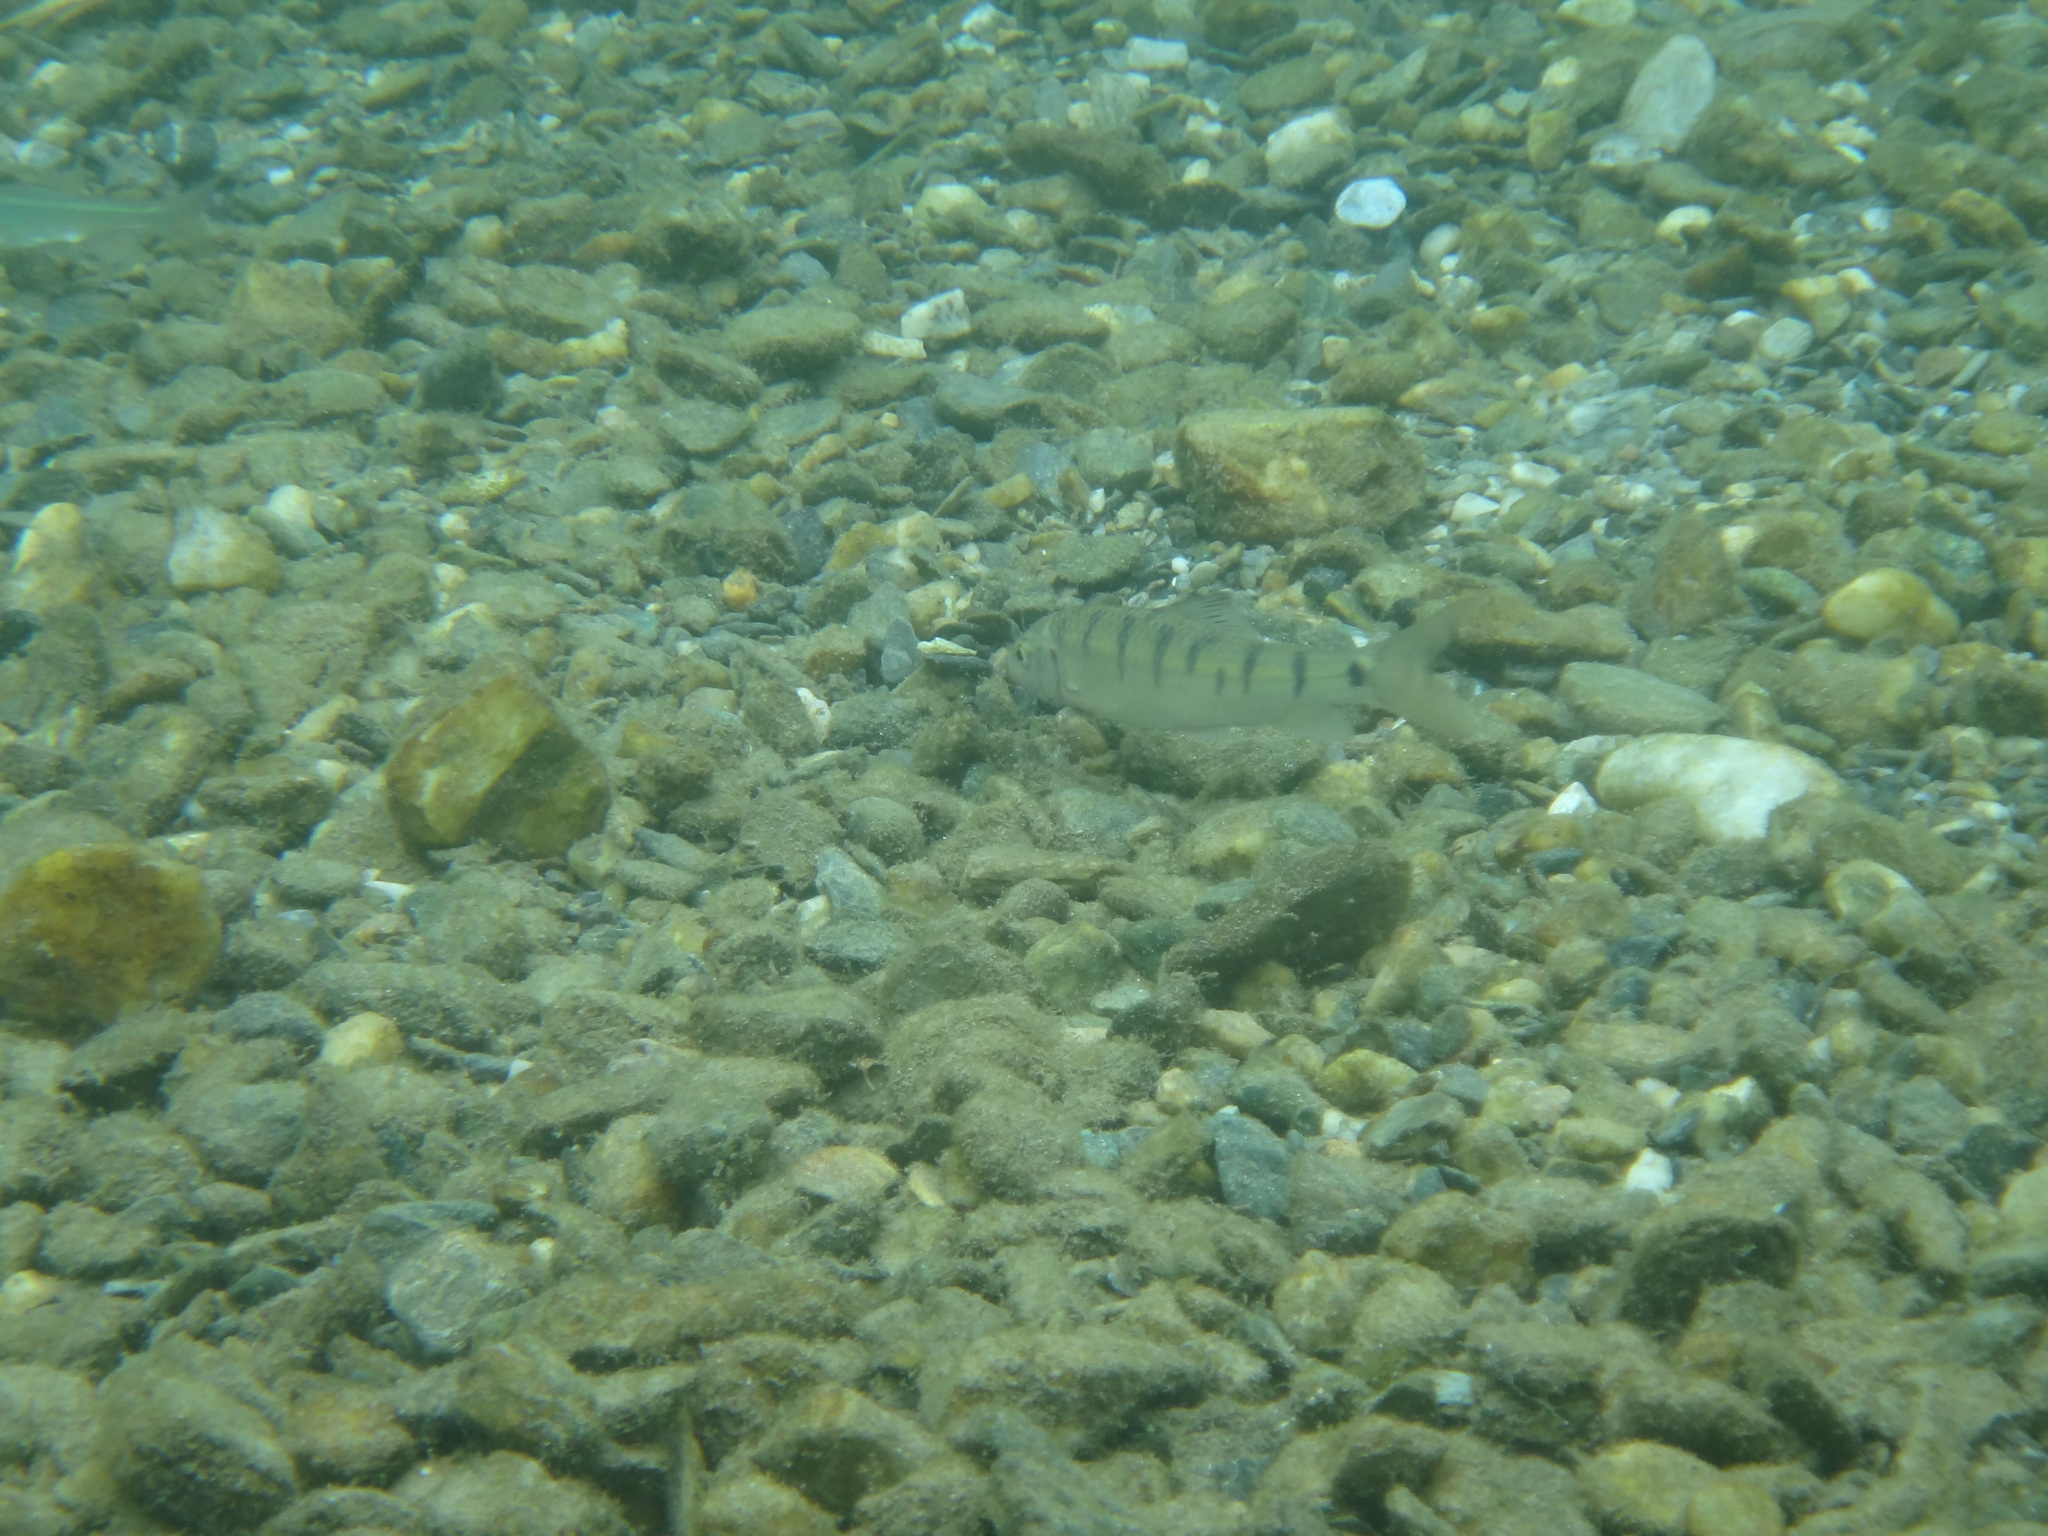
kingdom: Animalia
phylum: Chordata
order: Cypriniformes
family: Cyprinidae
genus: Acrossocheilus
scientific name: Acrossocheilus paradoxus
